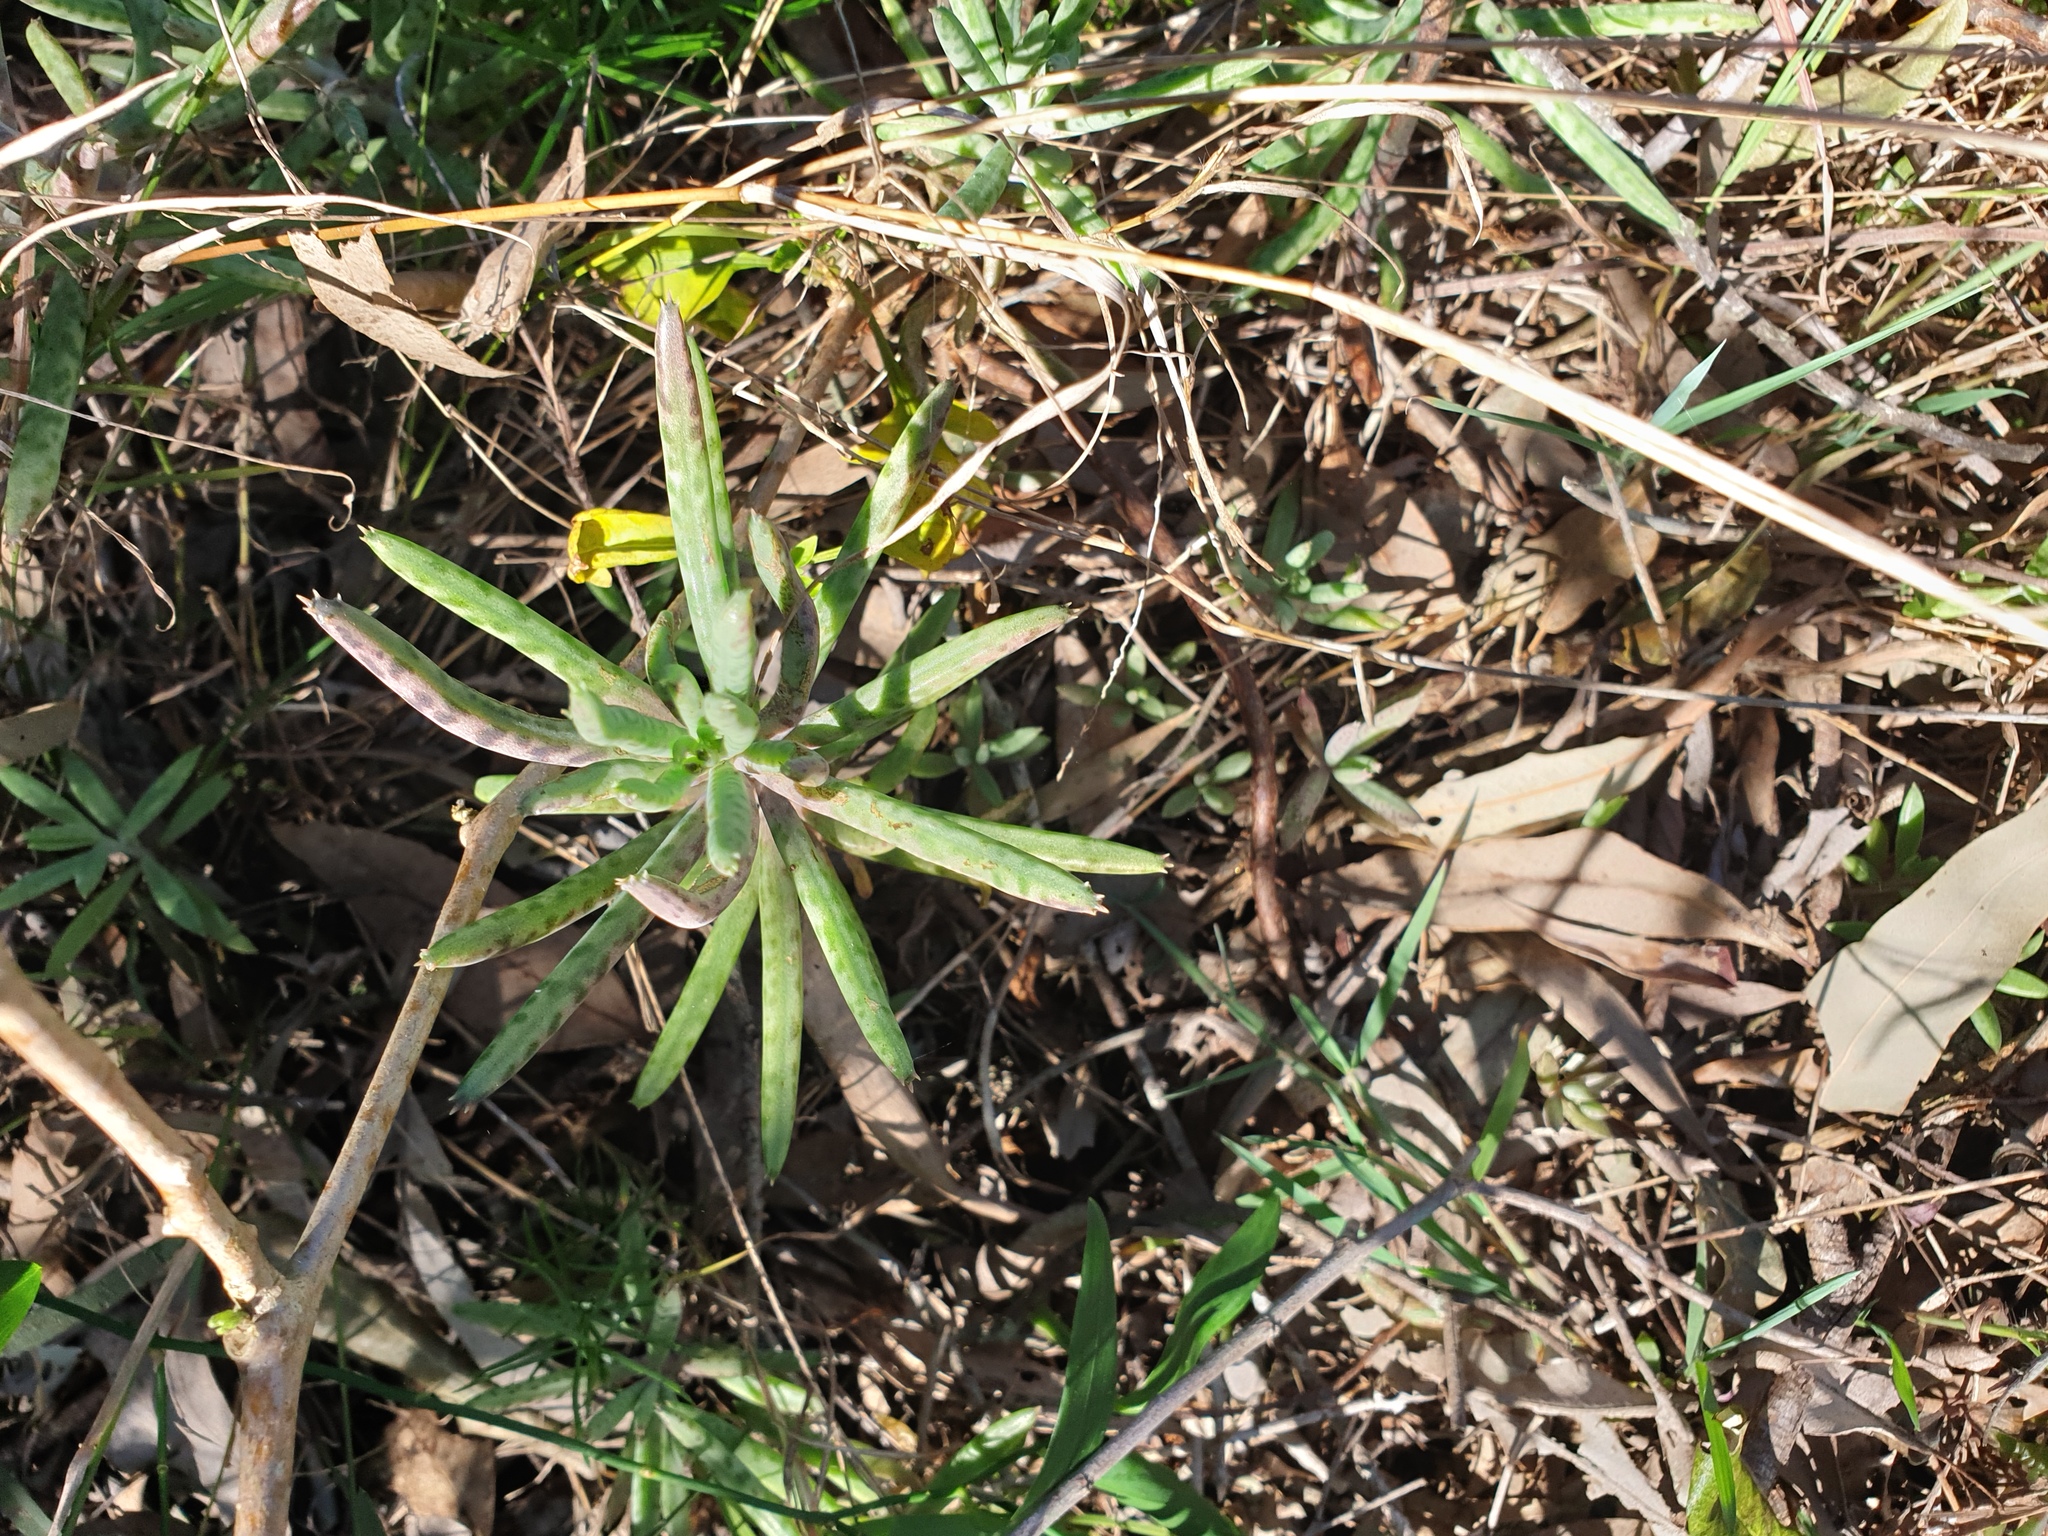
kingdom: Plantae
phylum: Tracheophyta
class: Magnoliopsida
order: Saxifragales
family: Crassulaceae
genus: Kalanchoe
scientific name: Kalanchoe delagoensis
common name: Chandelier plant
